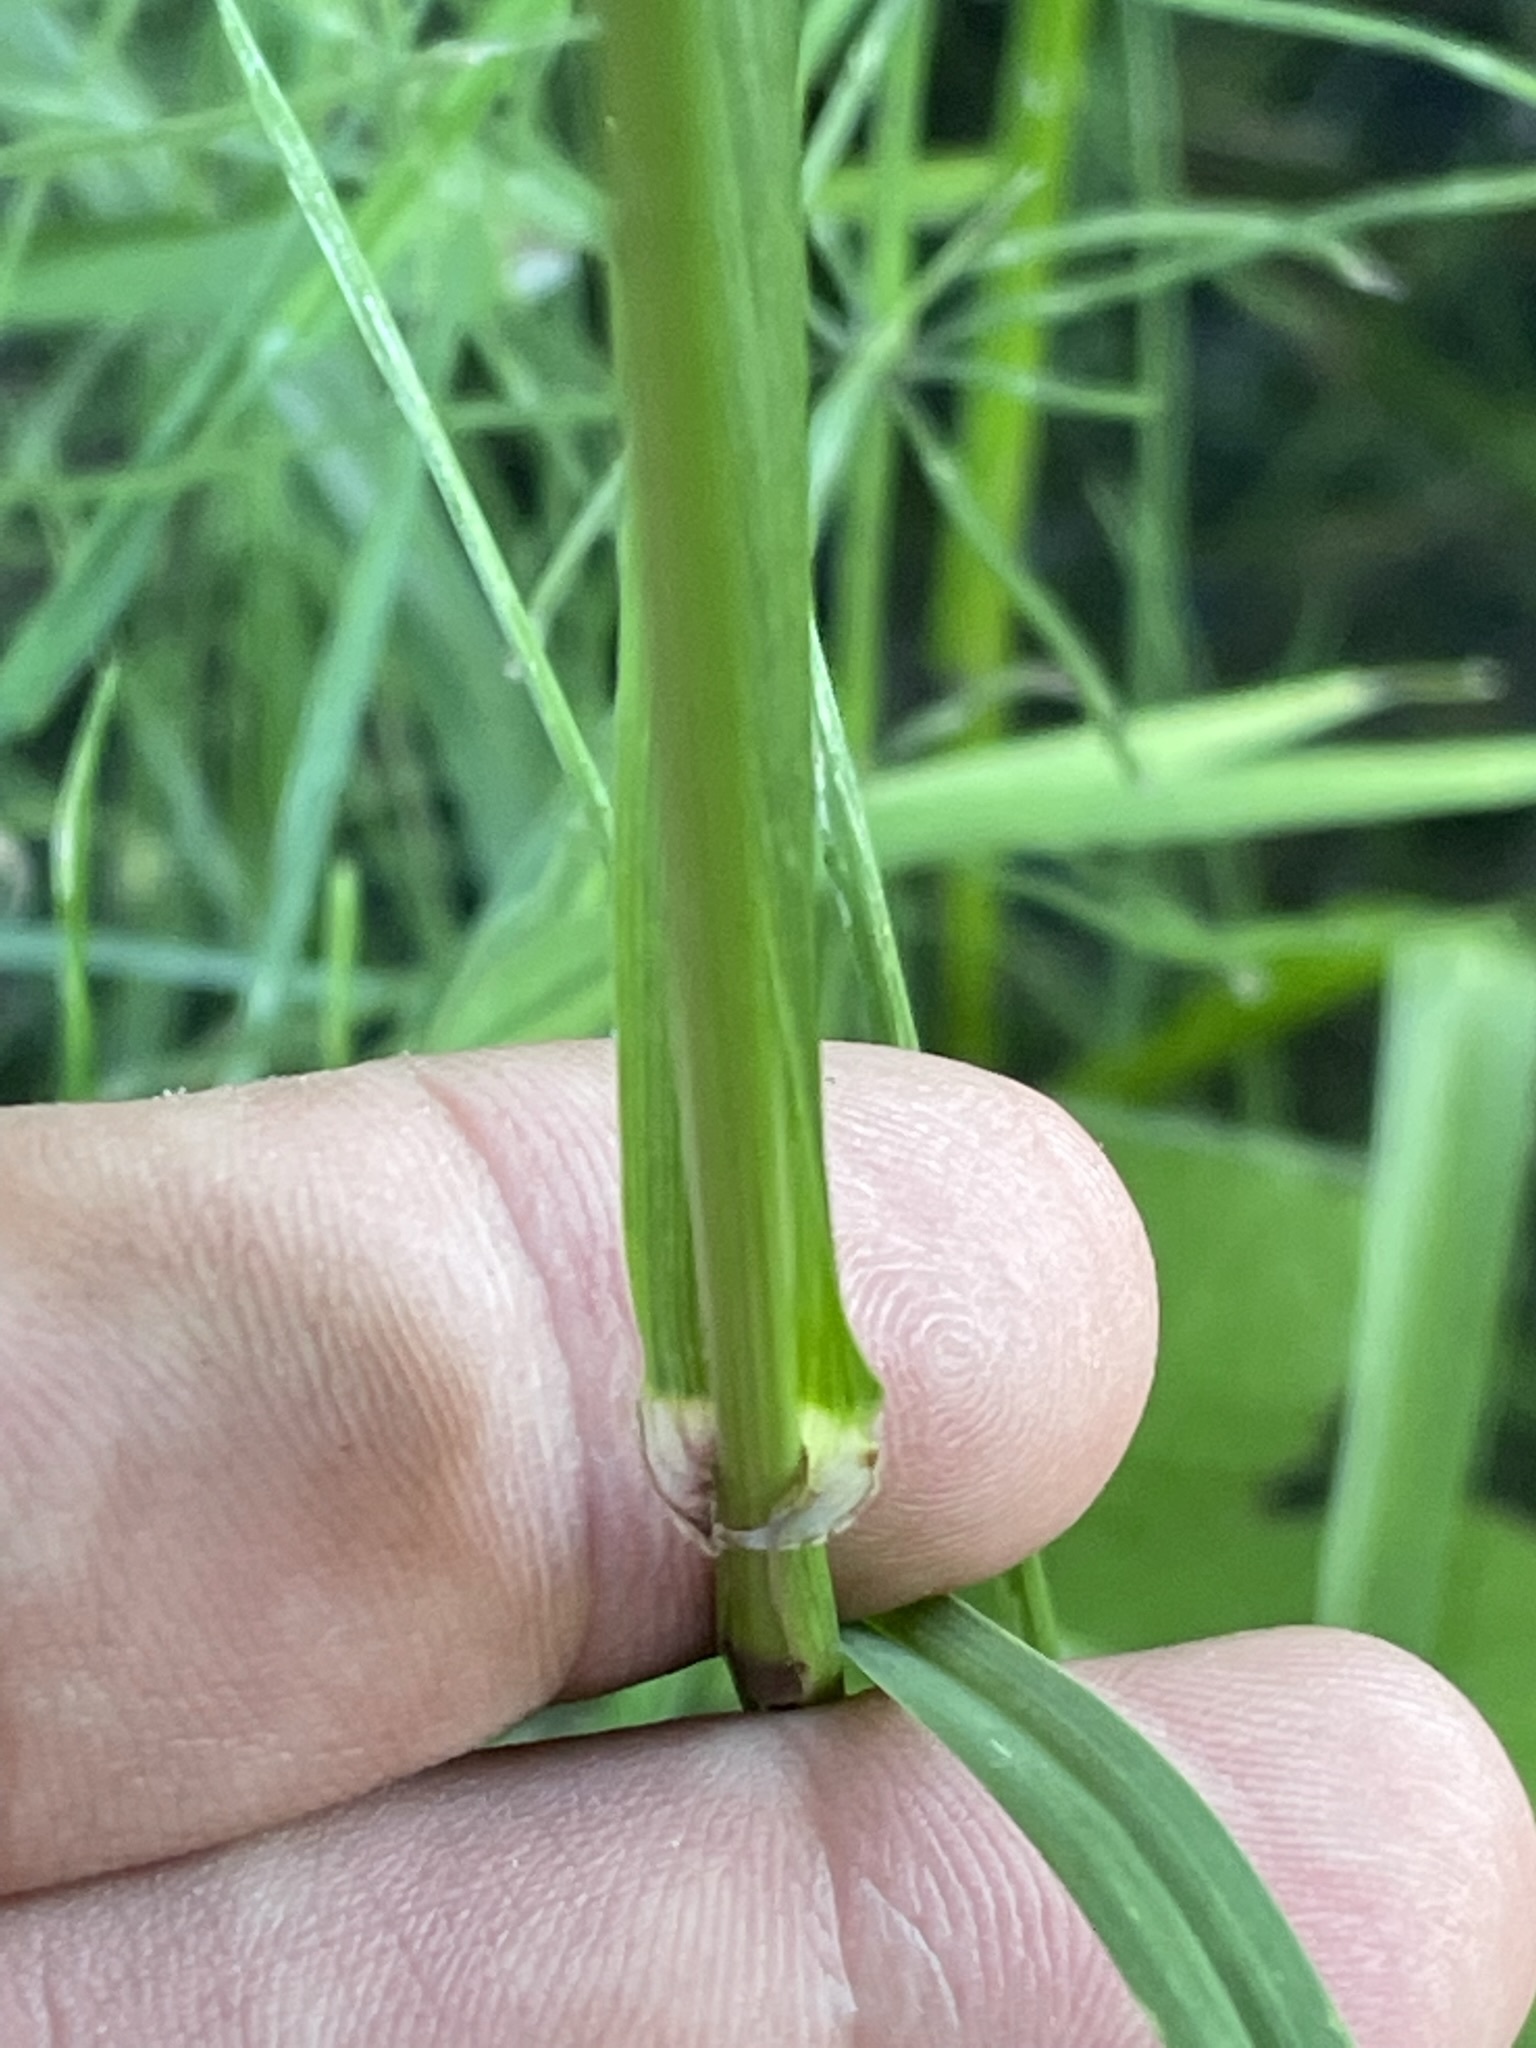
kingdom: Plantae
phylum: Tracheophyta
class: Liliopsida
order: Poales
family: Poaceae
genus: Lolium
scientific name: Lolium giganteum
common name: Giant fescue
